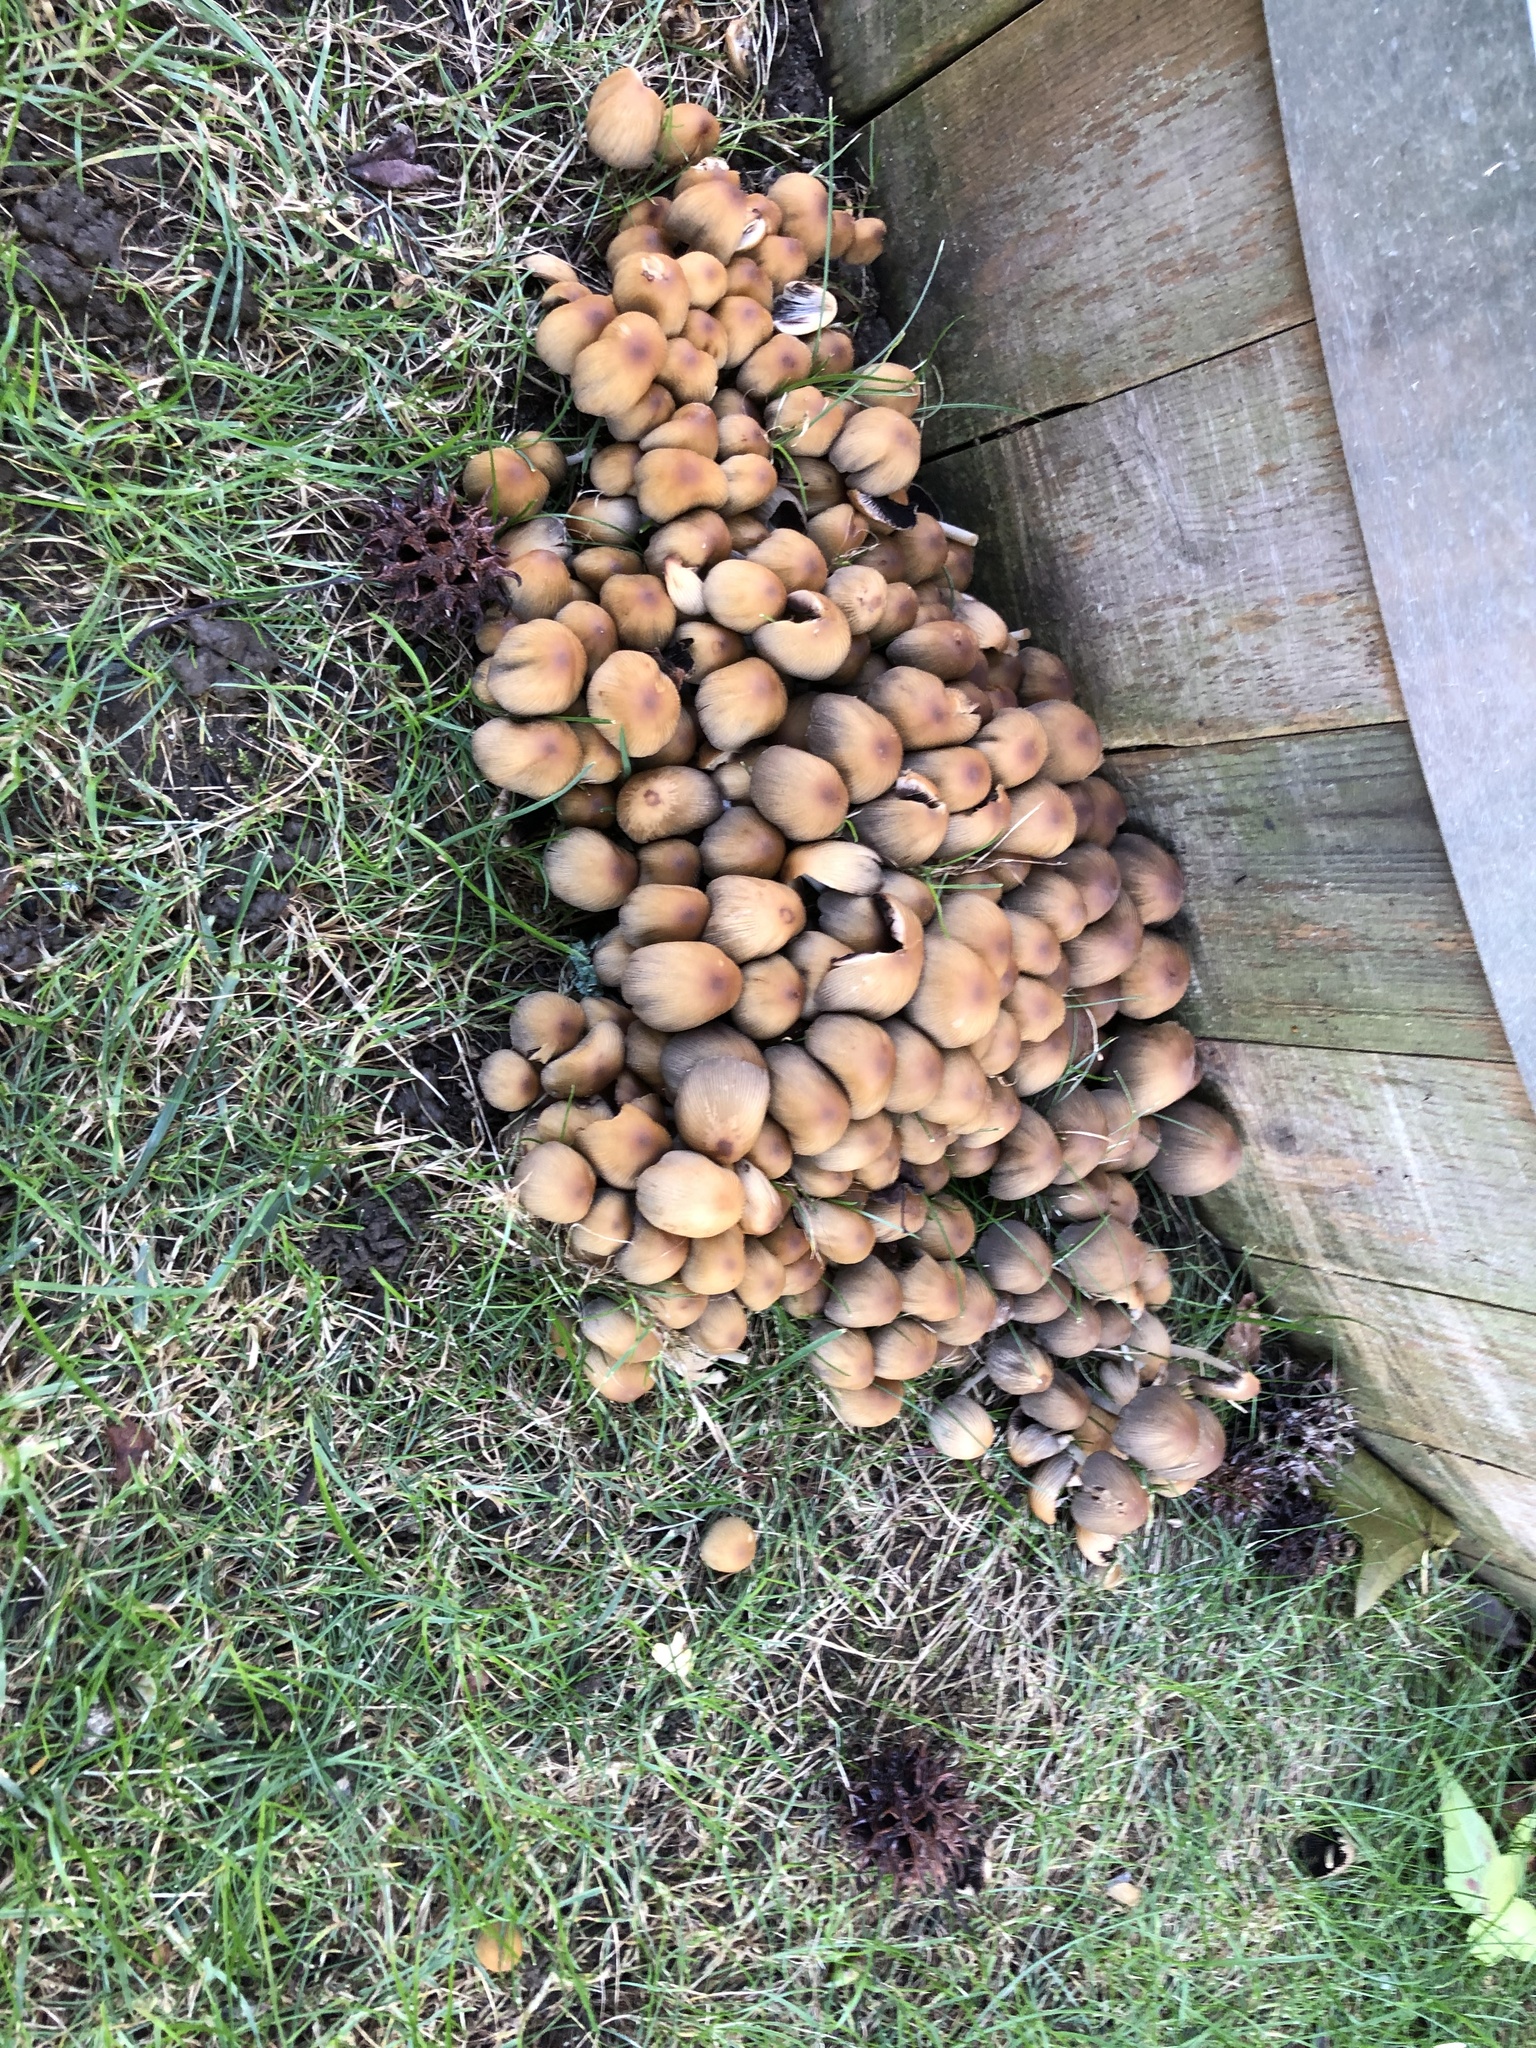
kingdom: Fungi
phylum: Basidiomycota
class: Agaricomycetes
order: Agaricales
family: Psathyrellaceae
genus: Coprinellus
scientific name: Coprinellus micaceus
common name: Glistening ink-cap
